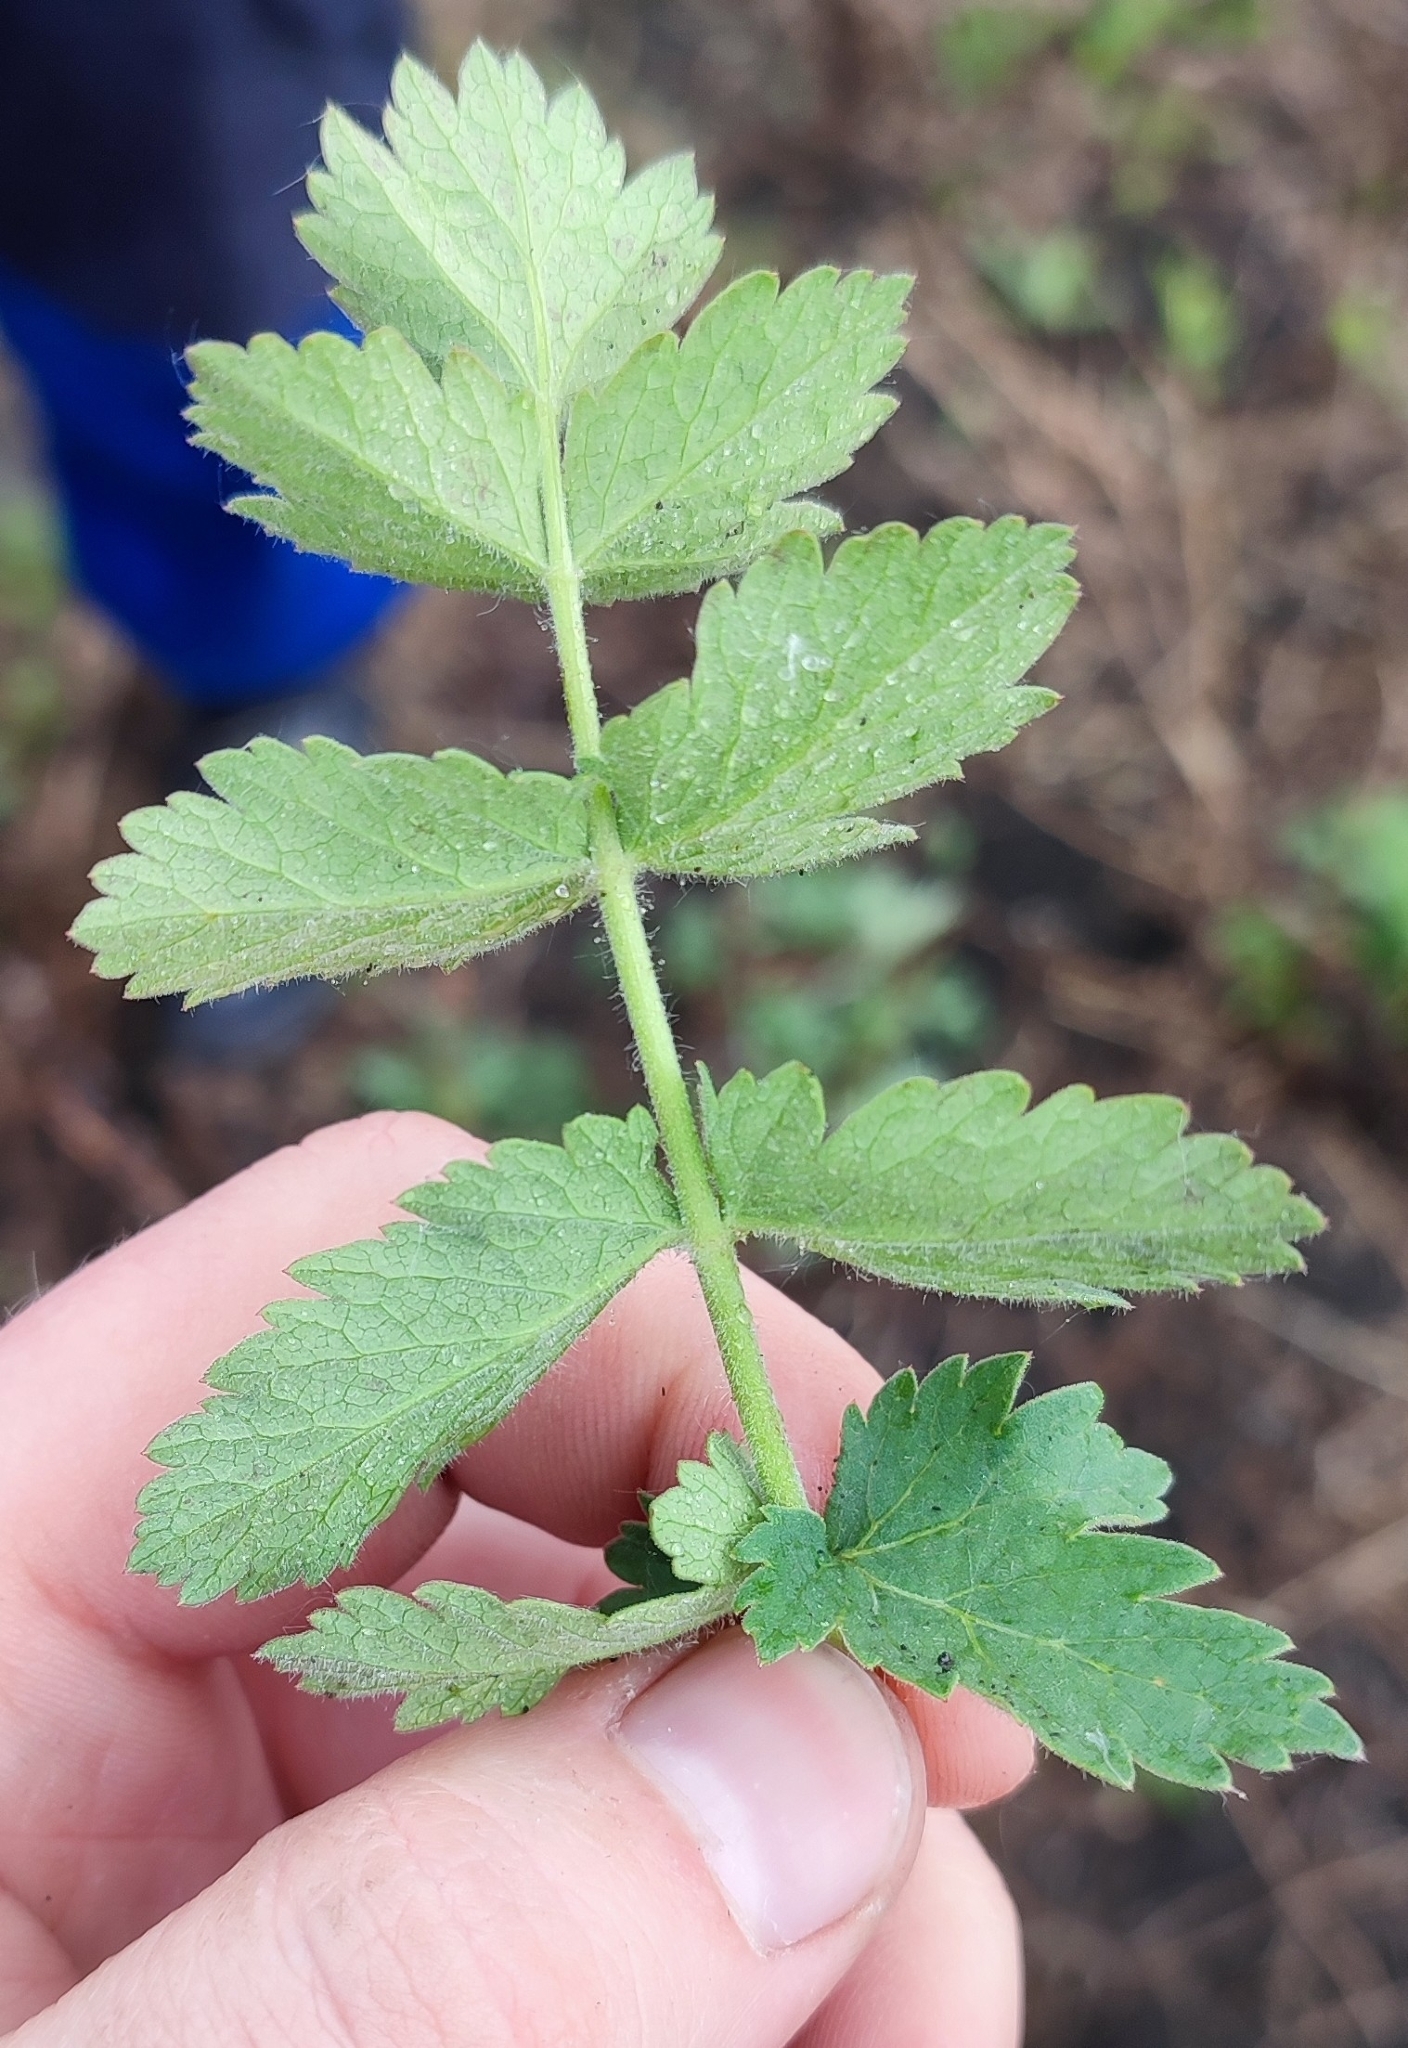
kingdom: Plantae
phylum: Tracheophyta
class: Magnoliopsida
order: Apiales
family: Apiaceae
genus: Pastinaca
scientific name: Pastinaca sativa
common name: Wild parsnip
